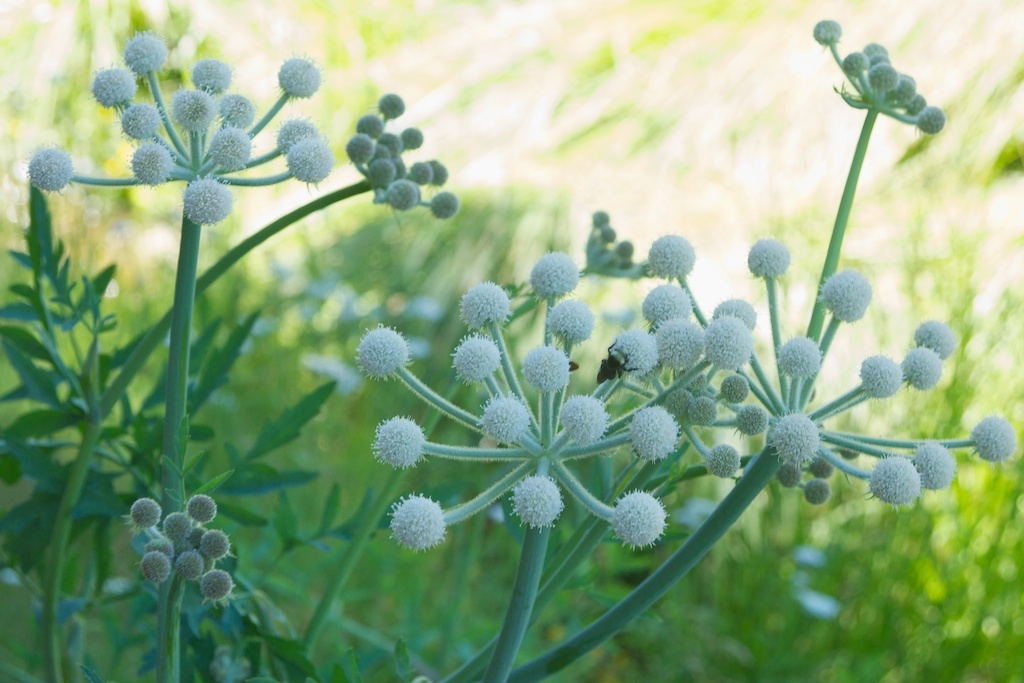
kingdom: Plantae
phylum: Tracheophyta
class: Magnoliopsida
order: Apiales
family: Apiaceae
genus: Angelica
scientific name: Angelica capitellata
